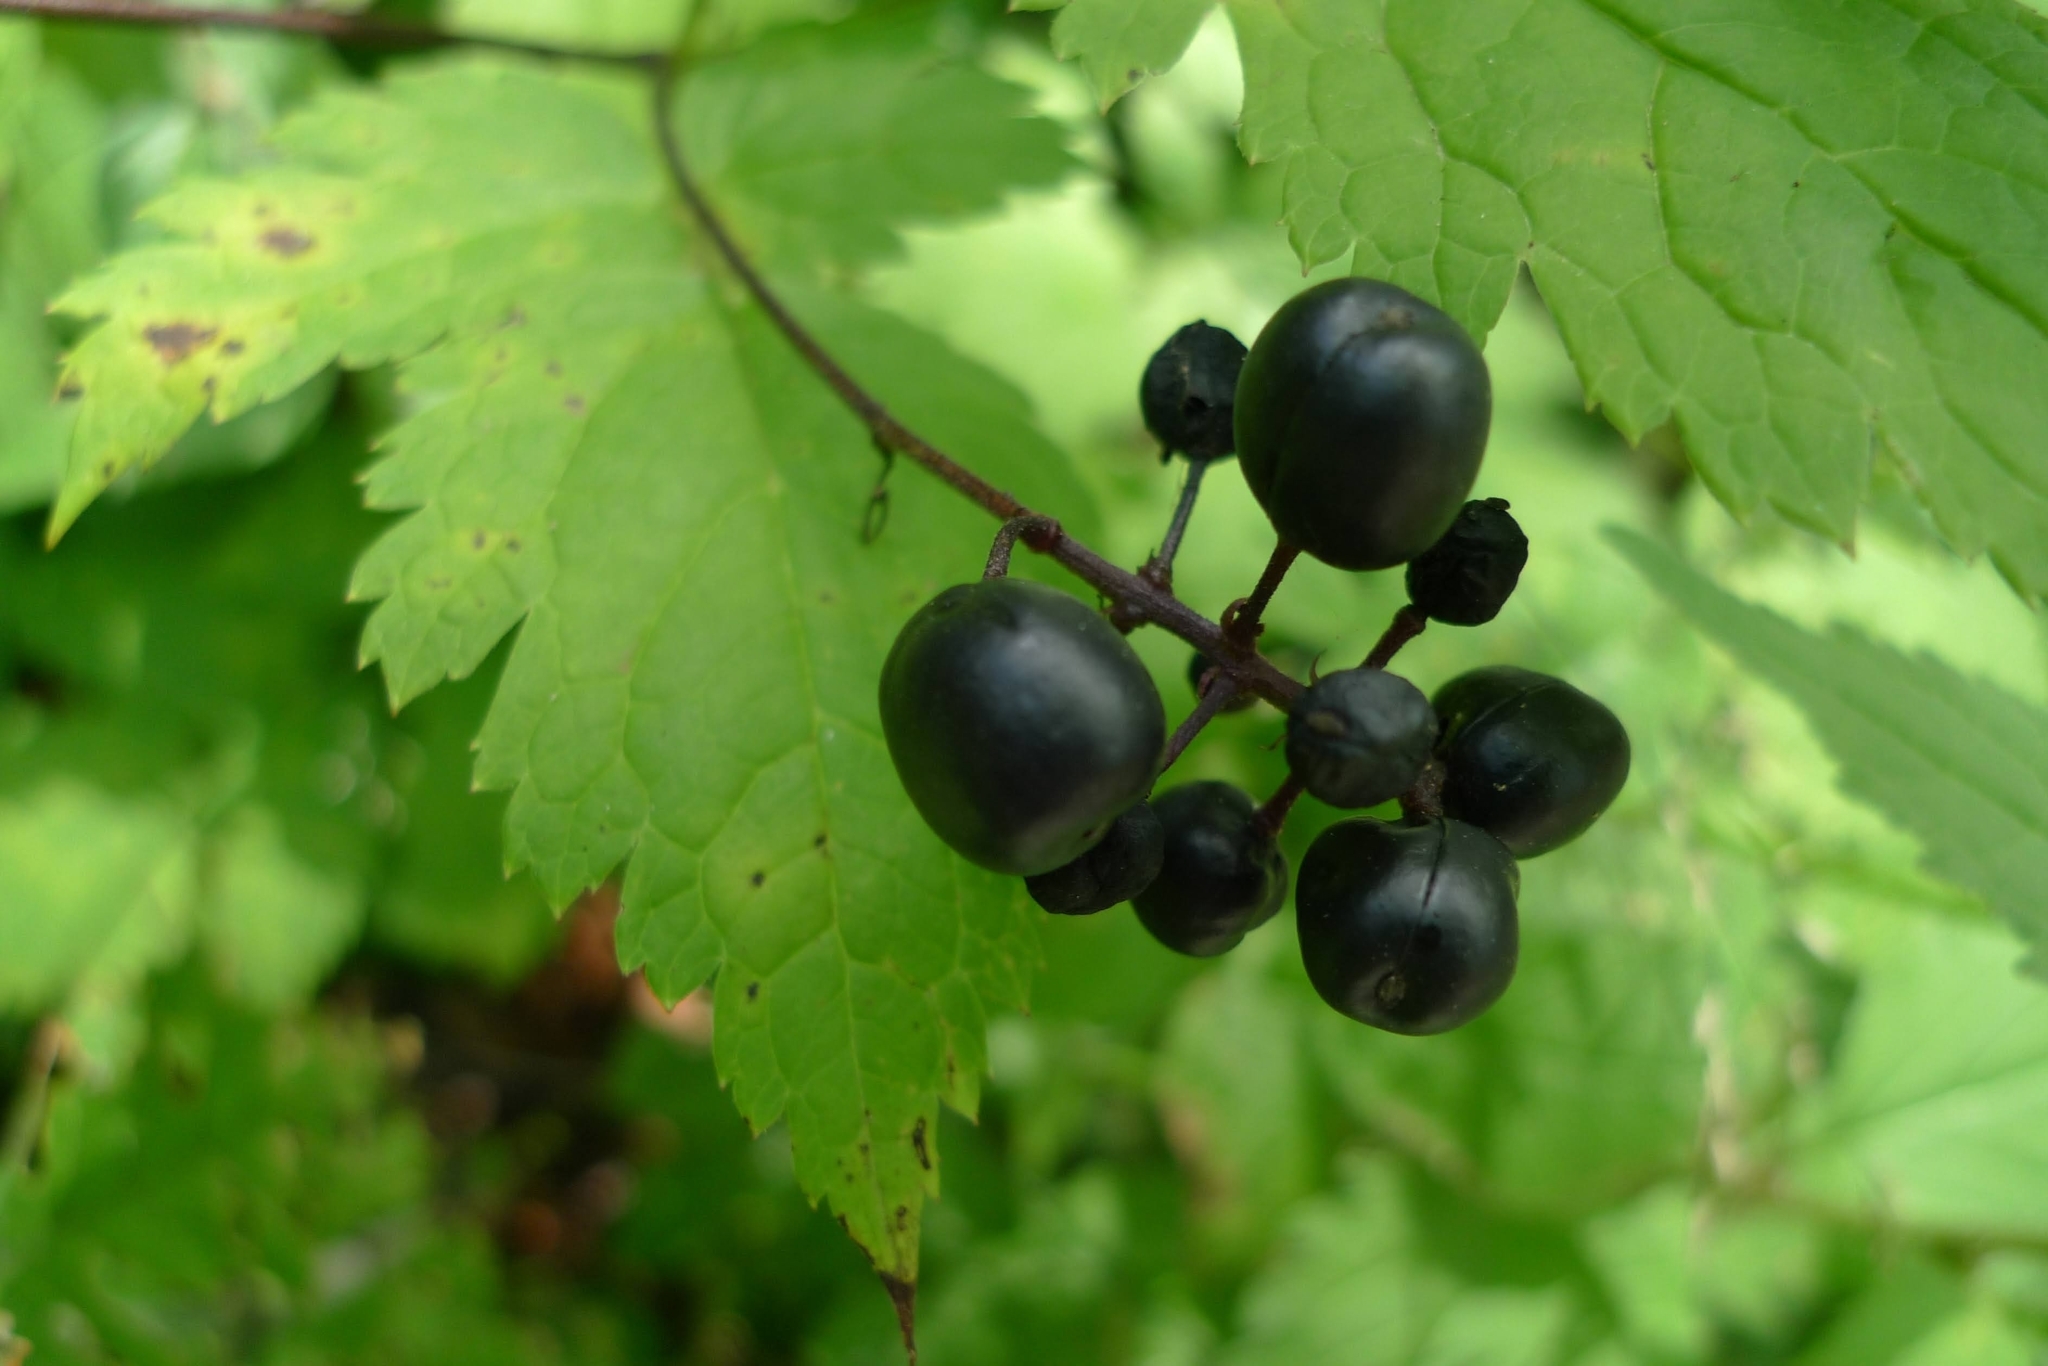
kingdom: Plantae
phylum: Tracheophyta
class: Magnoliopsida
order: Ranunculales
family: Ranunculaceae
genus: Actaea
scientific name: Actaea spicata
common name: Baneberry
